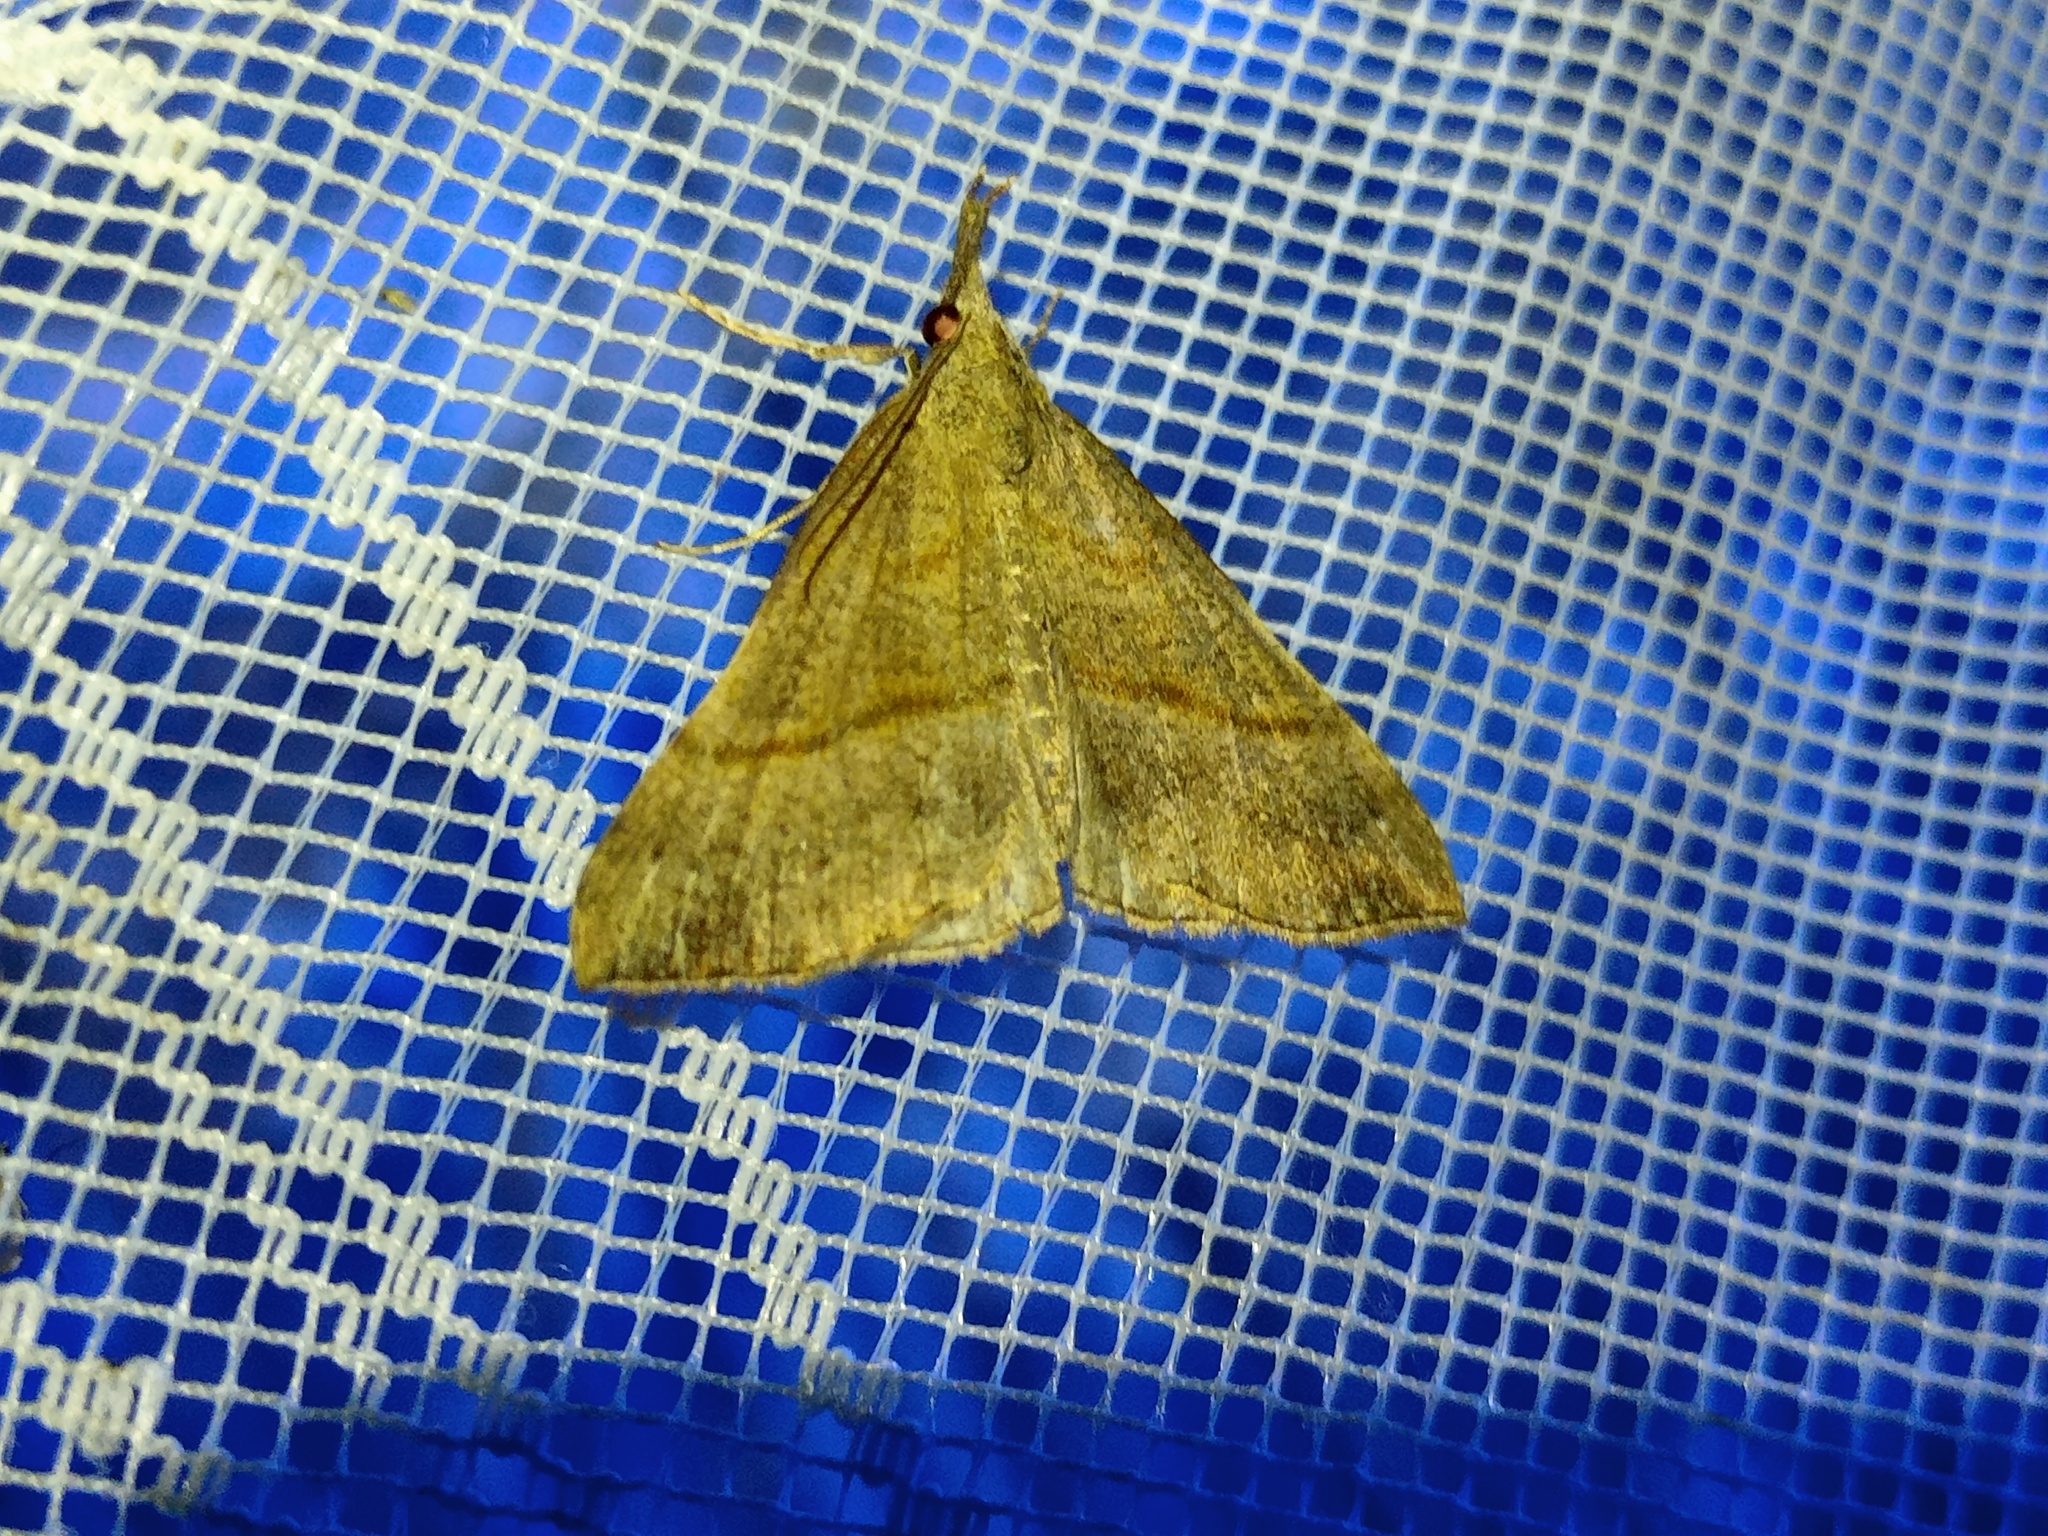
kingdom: Animalia
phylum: Arthropoda
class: Insecta
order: Lepidoptera
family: Erebidae
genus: Hypena
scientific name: Hypena proboscidalis
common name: Snout
